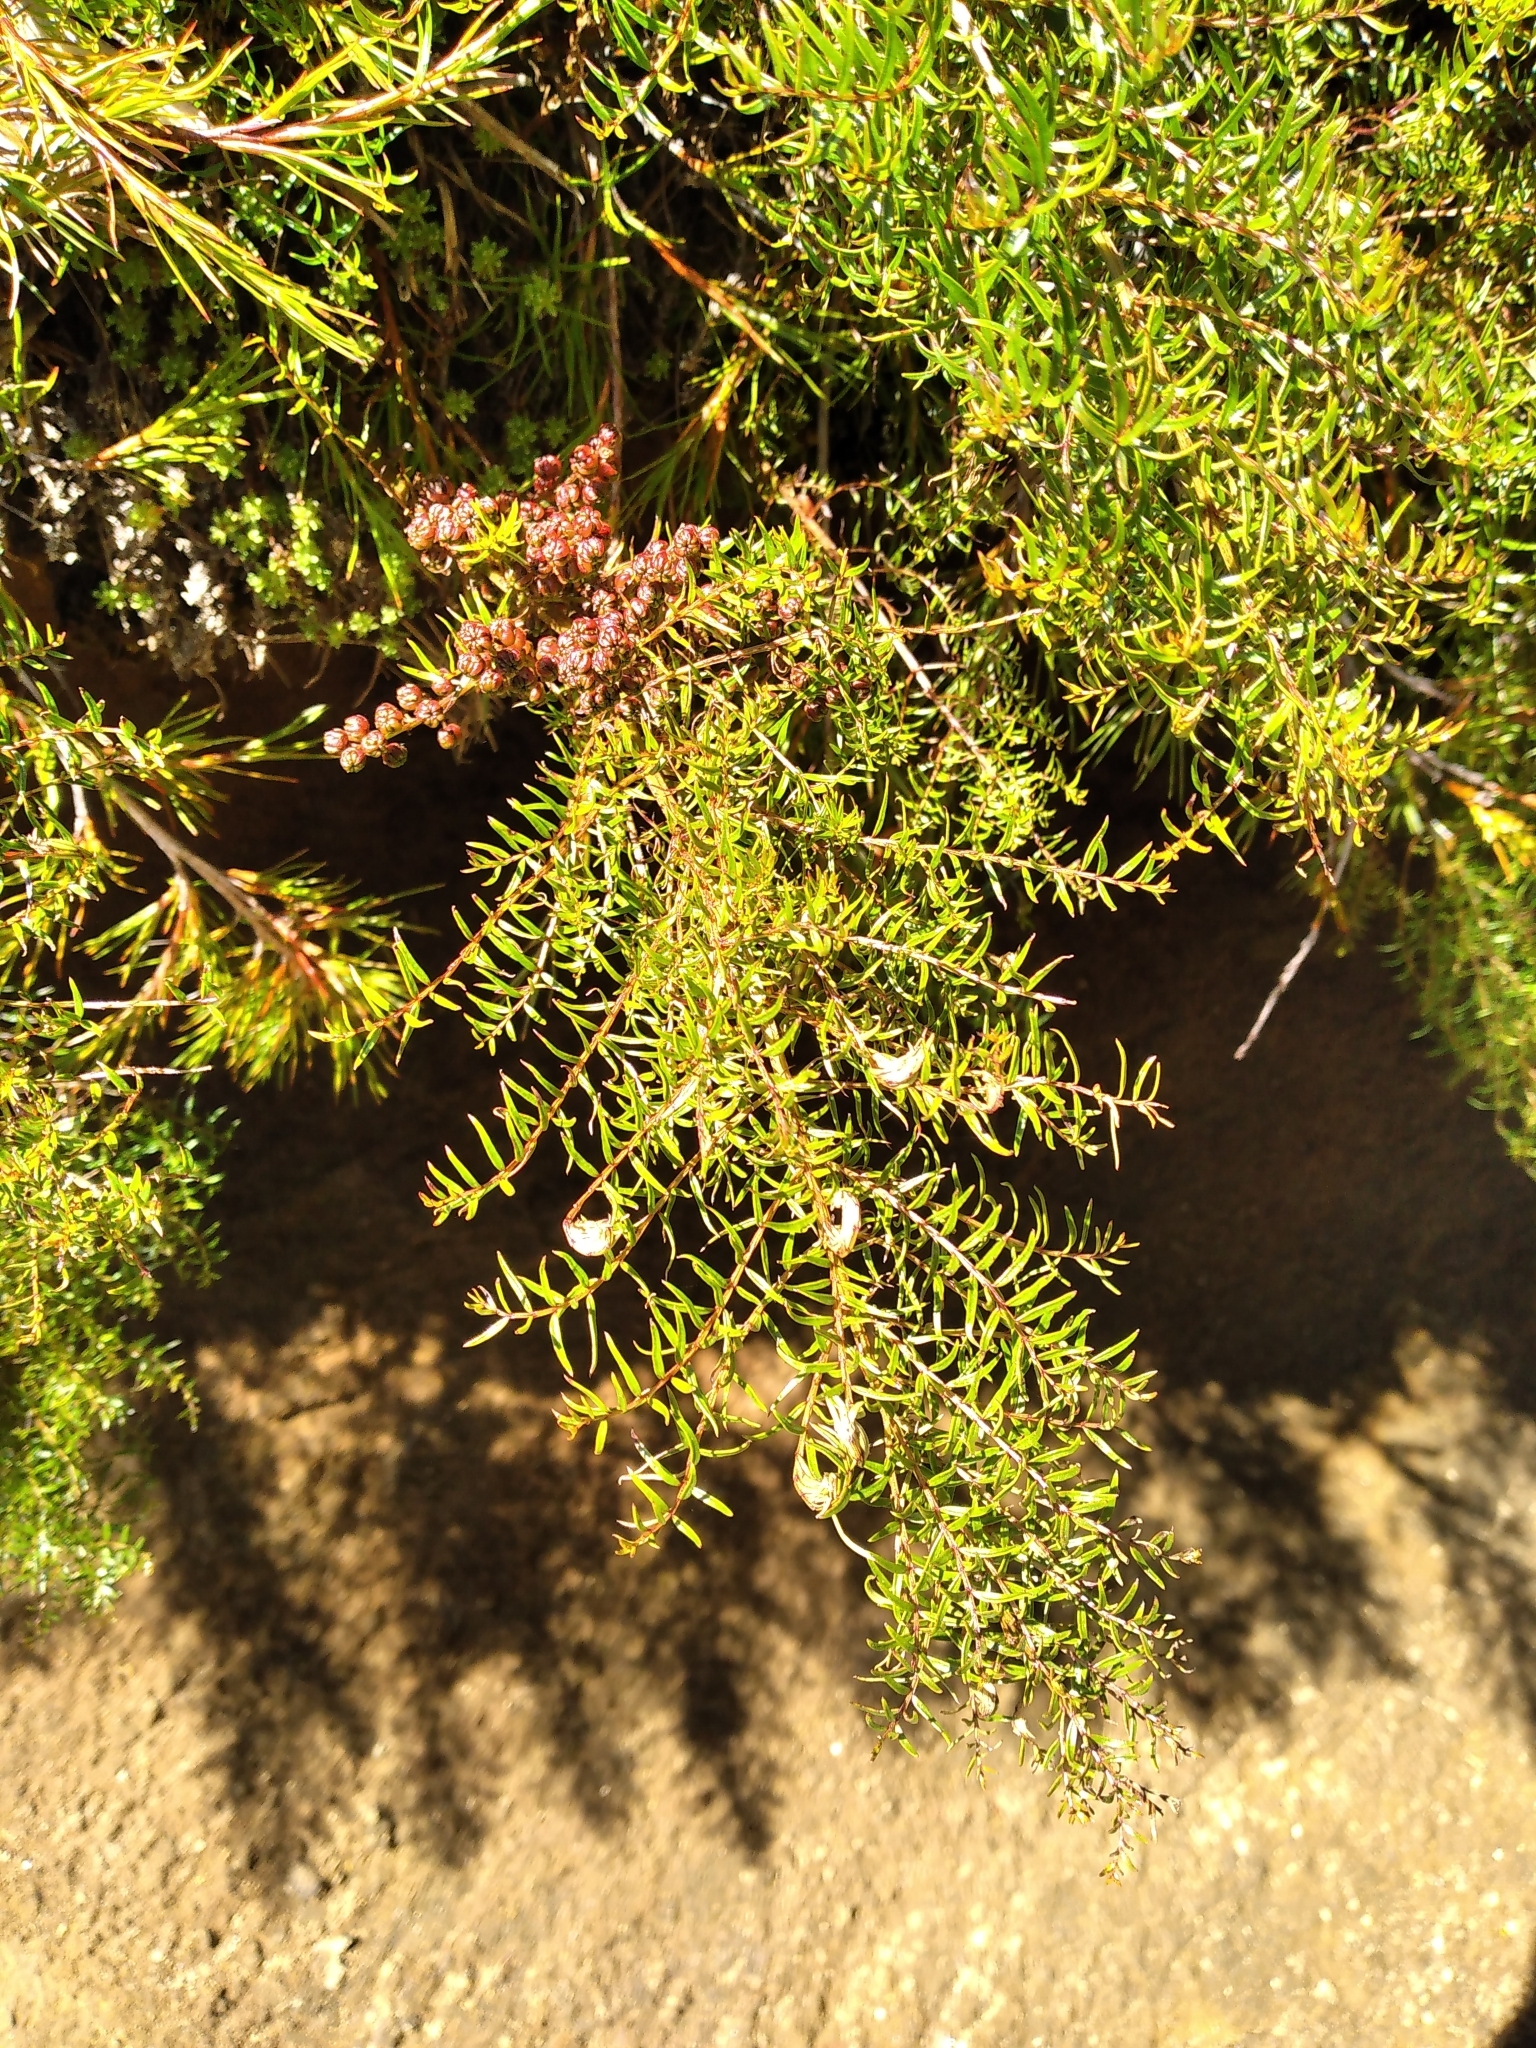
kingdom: Plantae
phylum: Tracheophyta
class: Magnoliopsida
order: Cucurbitales
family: Coriariaceae
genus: Coriaria
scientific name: Coriaria angustissima
